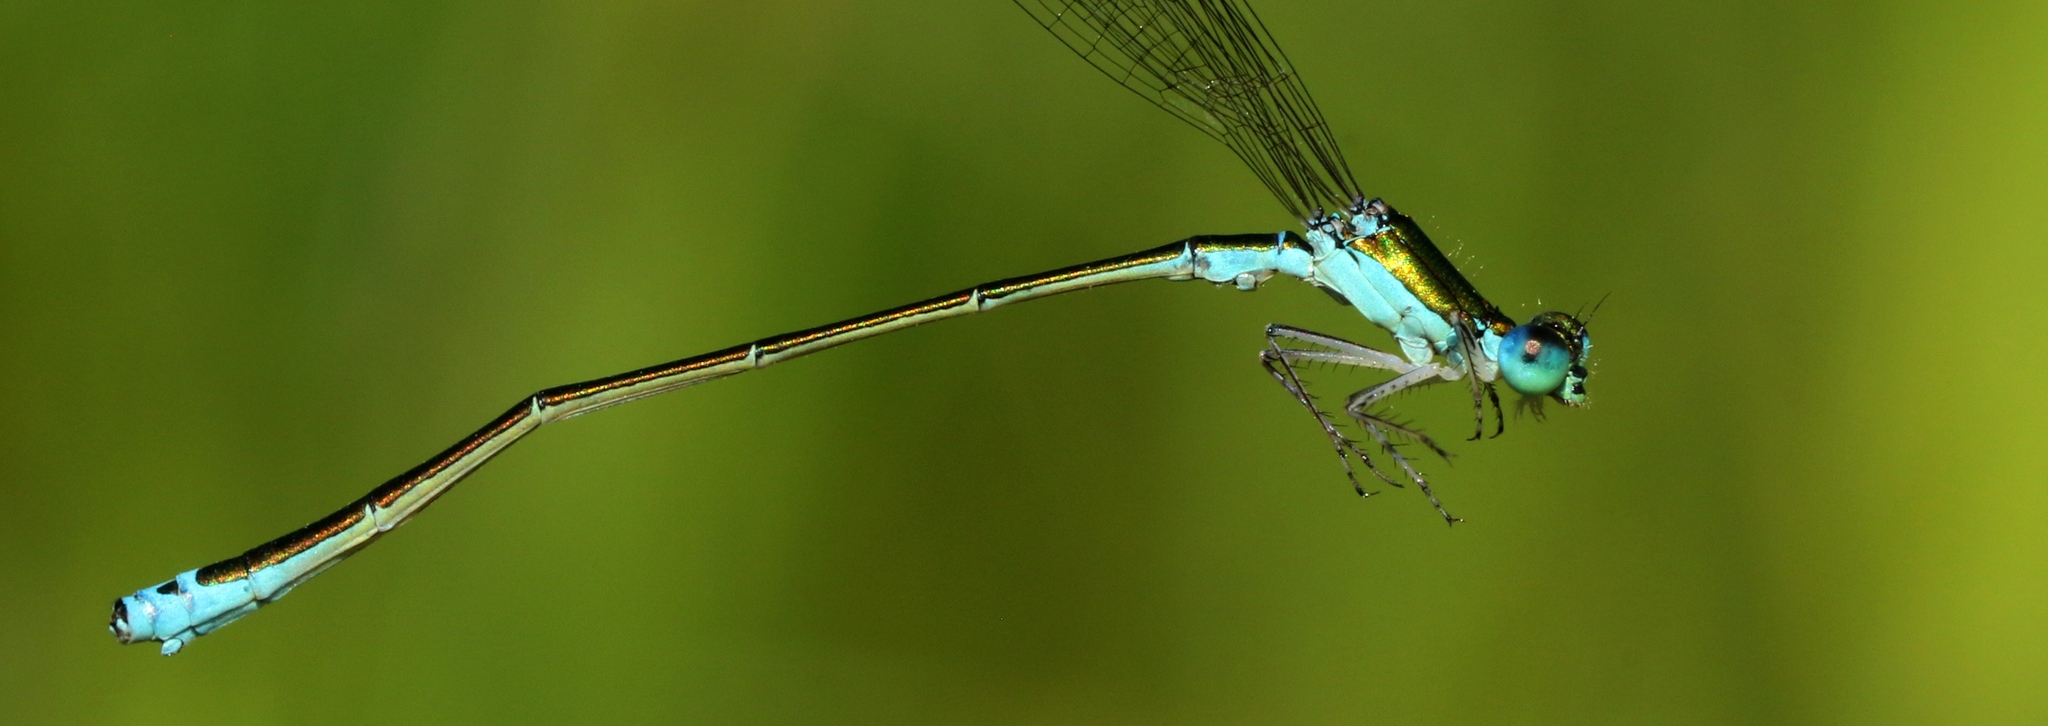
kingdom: Animalia
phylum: Arthropoda
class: Insecta
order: Odonata
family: Coenagrionidae
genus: Nehalennia
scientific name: Nehalennia irene
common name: Sedge sprite
